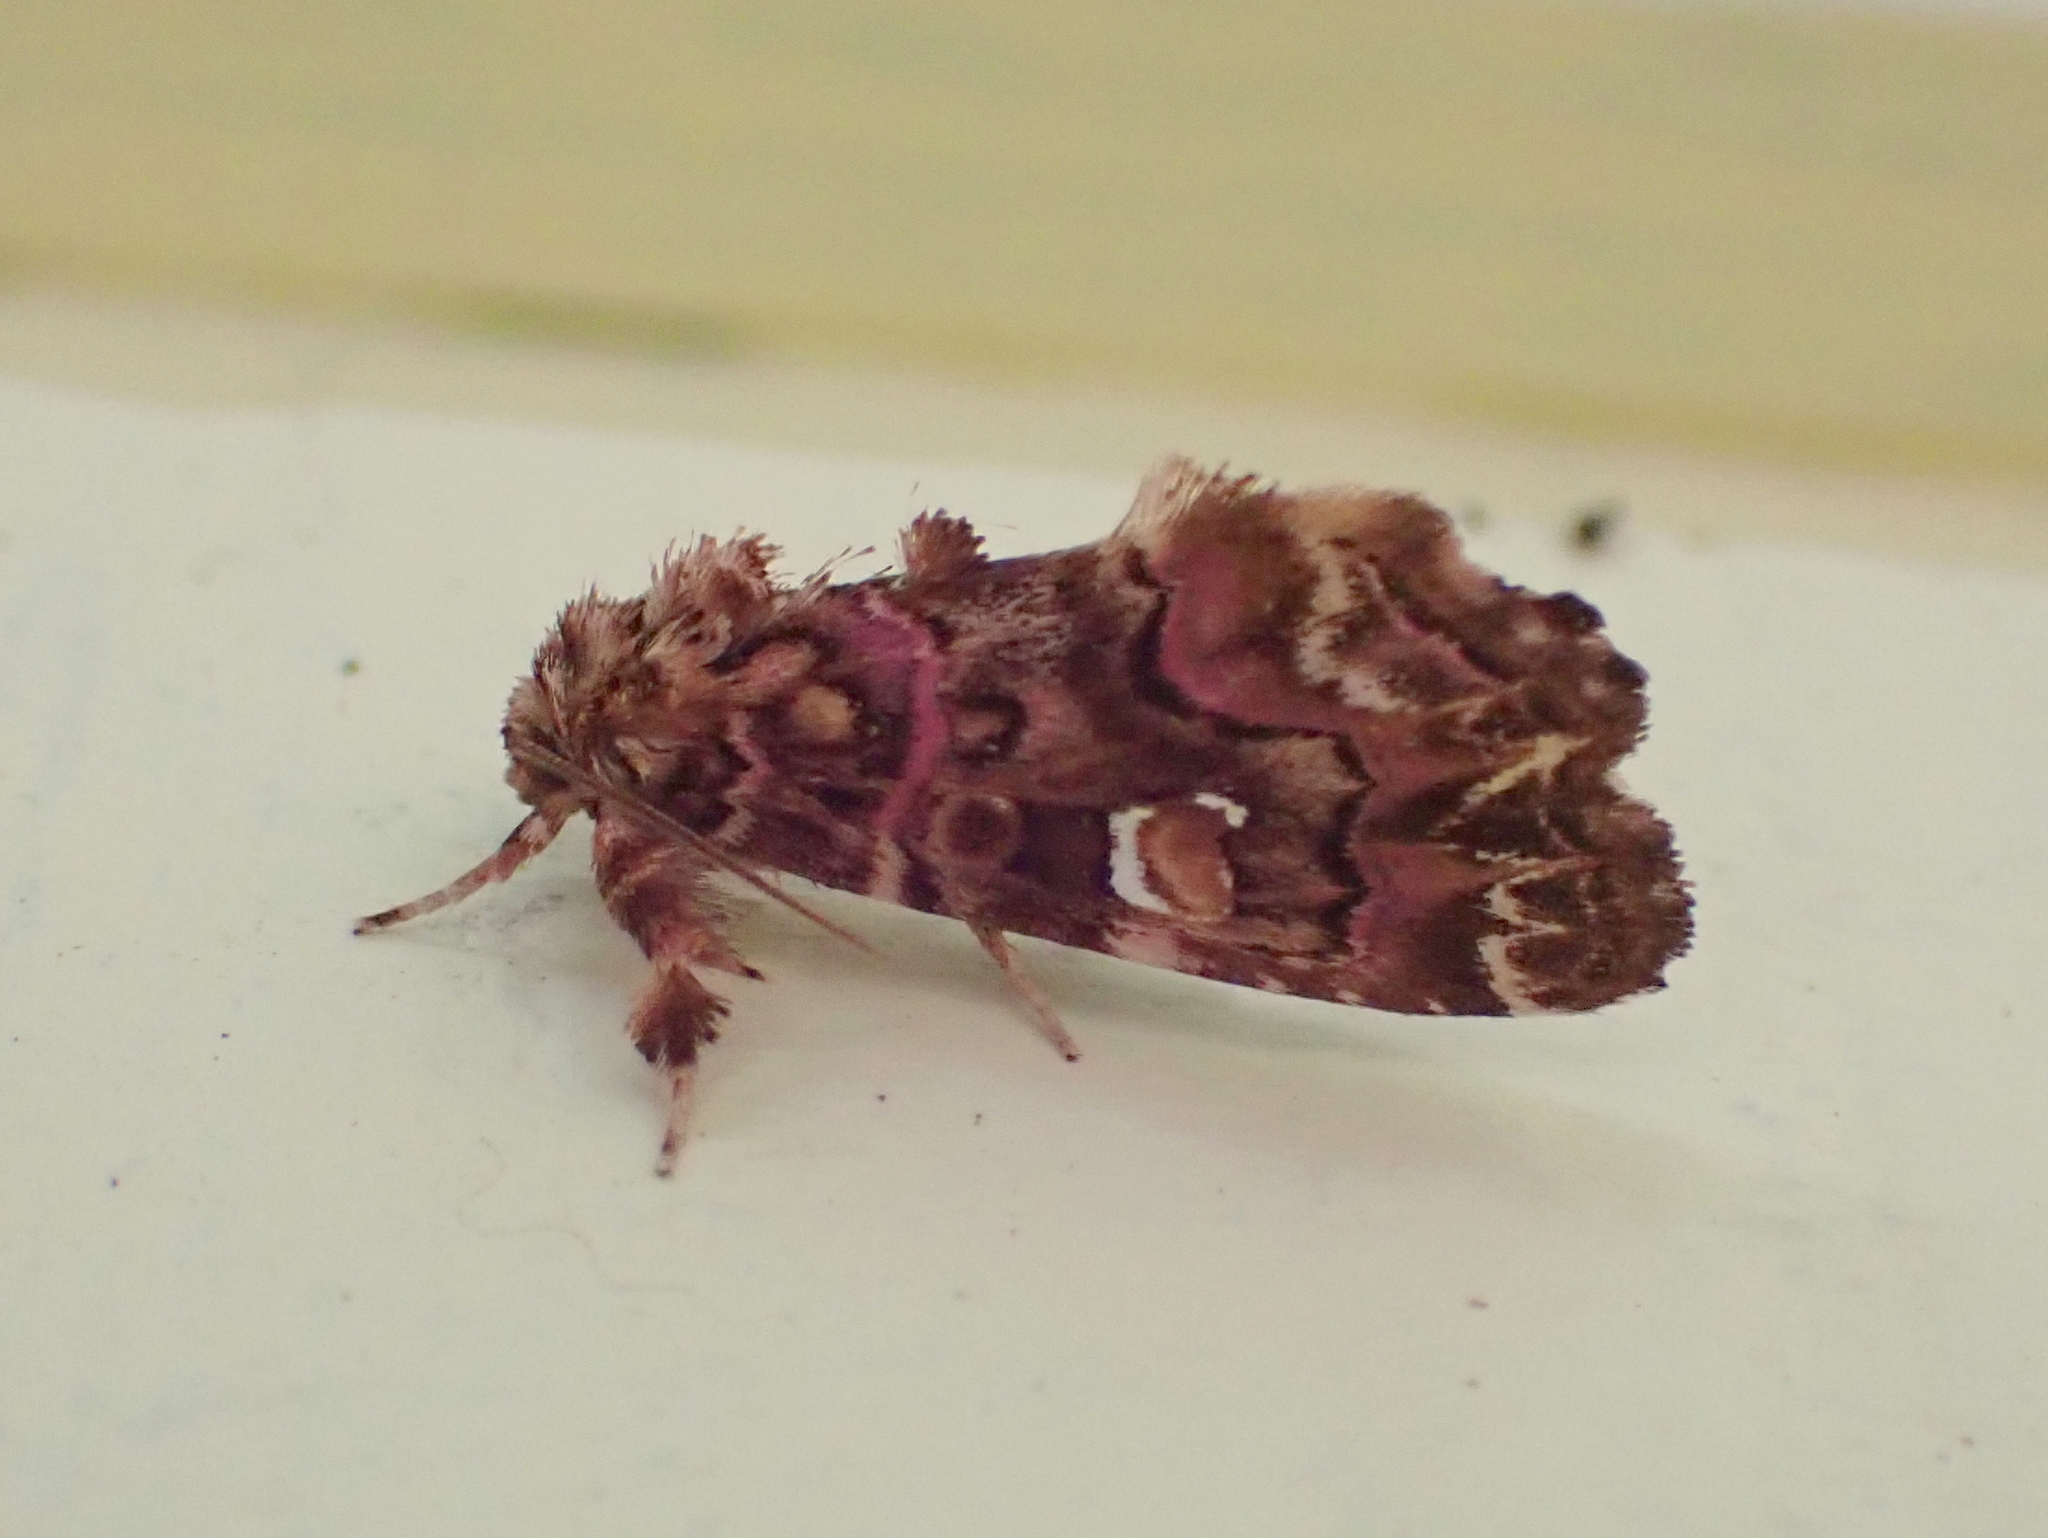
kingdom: Animalia
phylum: Arthropoda
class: Insecta
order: Lepidoptera
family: Noctuidae
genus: Callopistria
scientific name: Callopistria mollissima
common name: Pink-shaded fern moth
